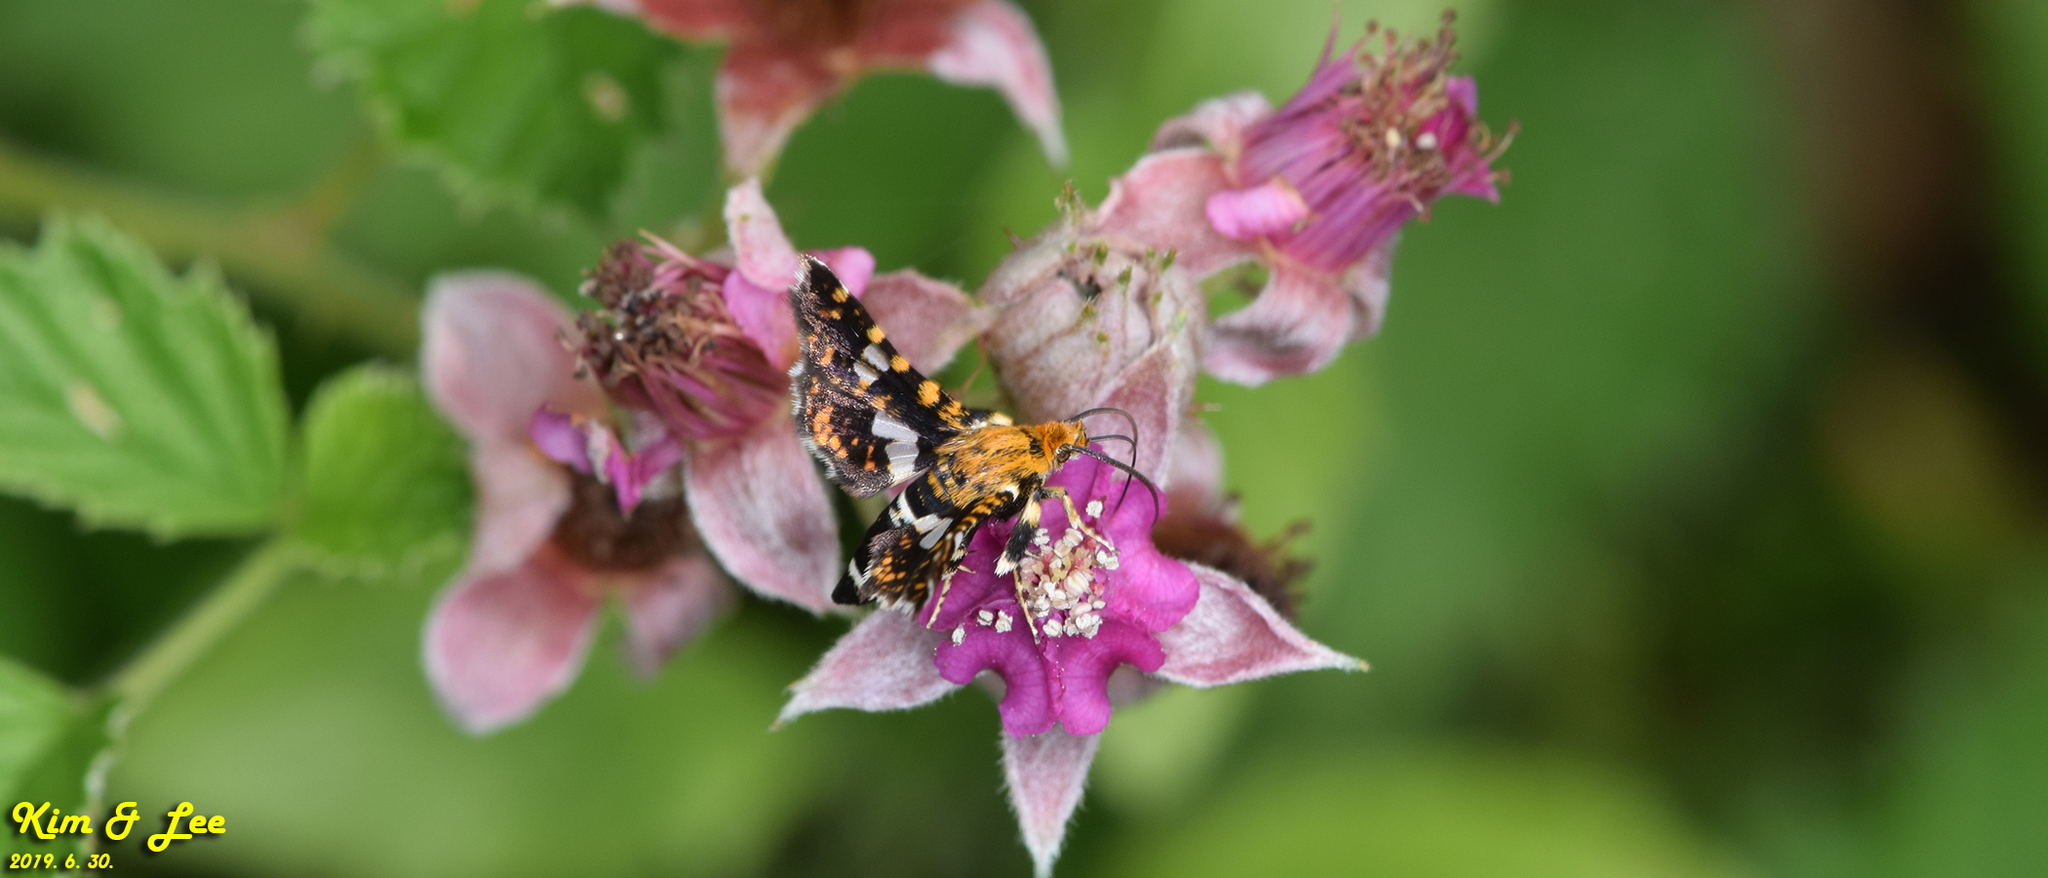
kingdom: Animalia
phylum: Arthropoda
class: Insecta
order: Lepidoptera
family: Thyrididae
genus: Thyris
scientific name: Thyris fenestrella
